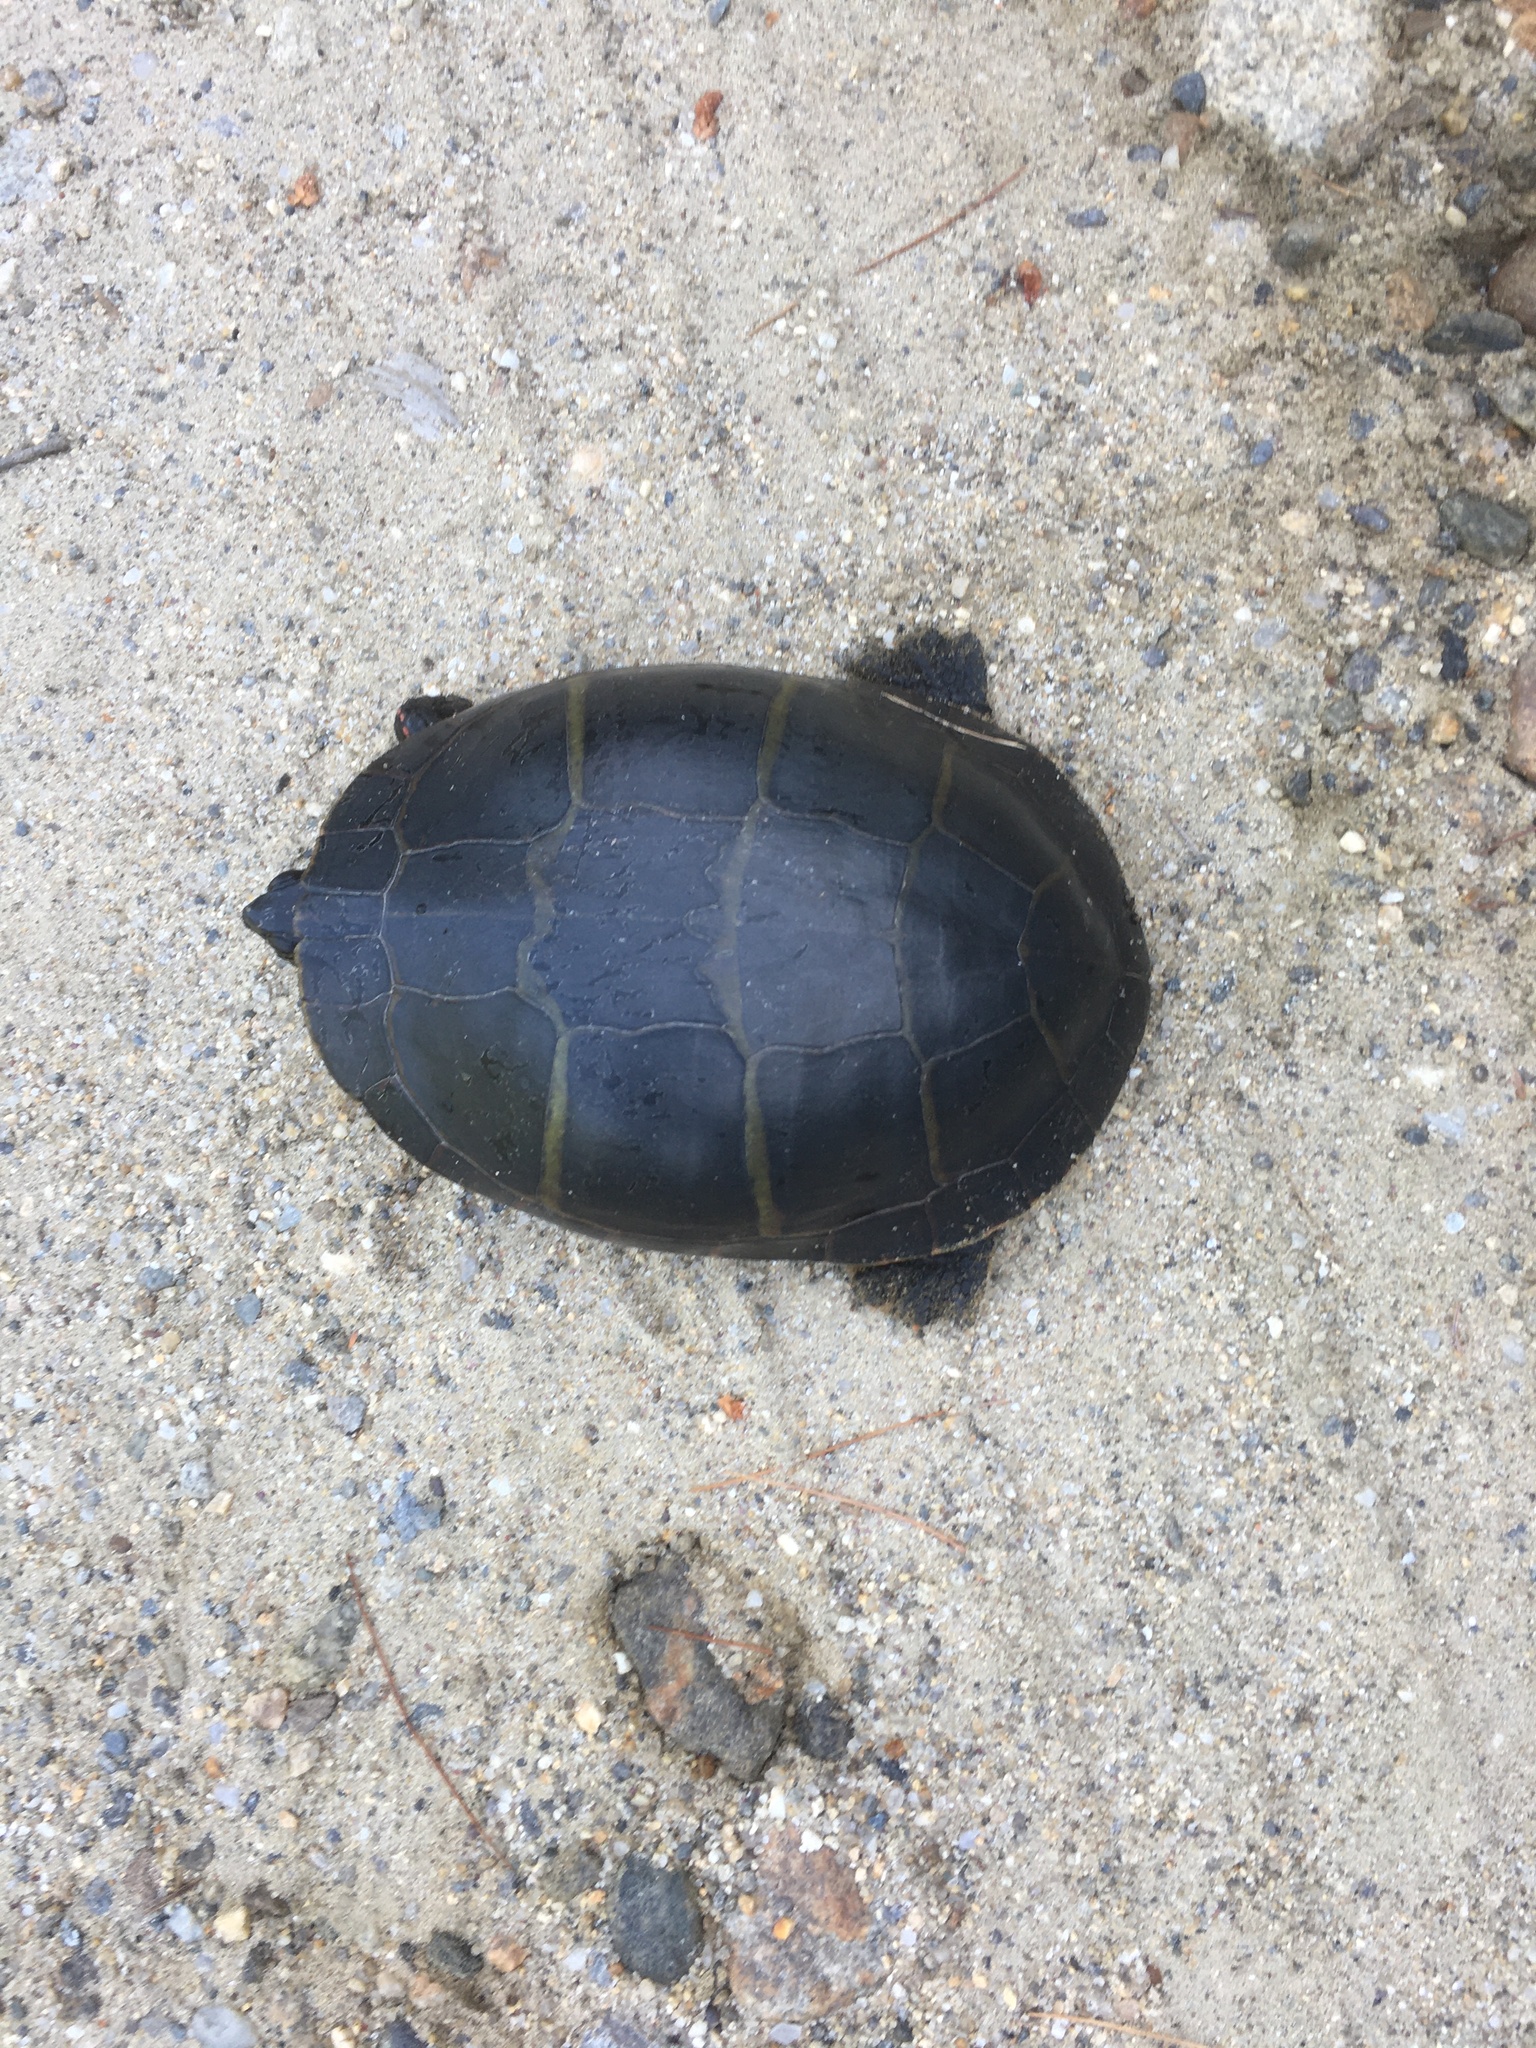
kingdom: Animalia
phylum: Chordata
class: Testudines
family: Emydidae
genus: Chrysemys
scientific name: Chrysemys picta
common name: Painted turtle
